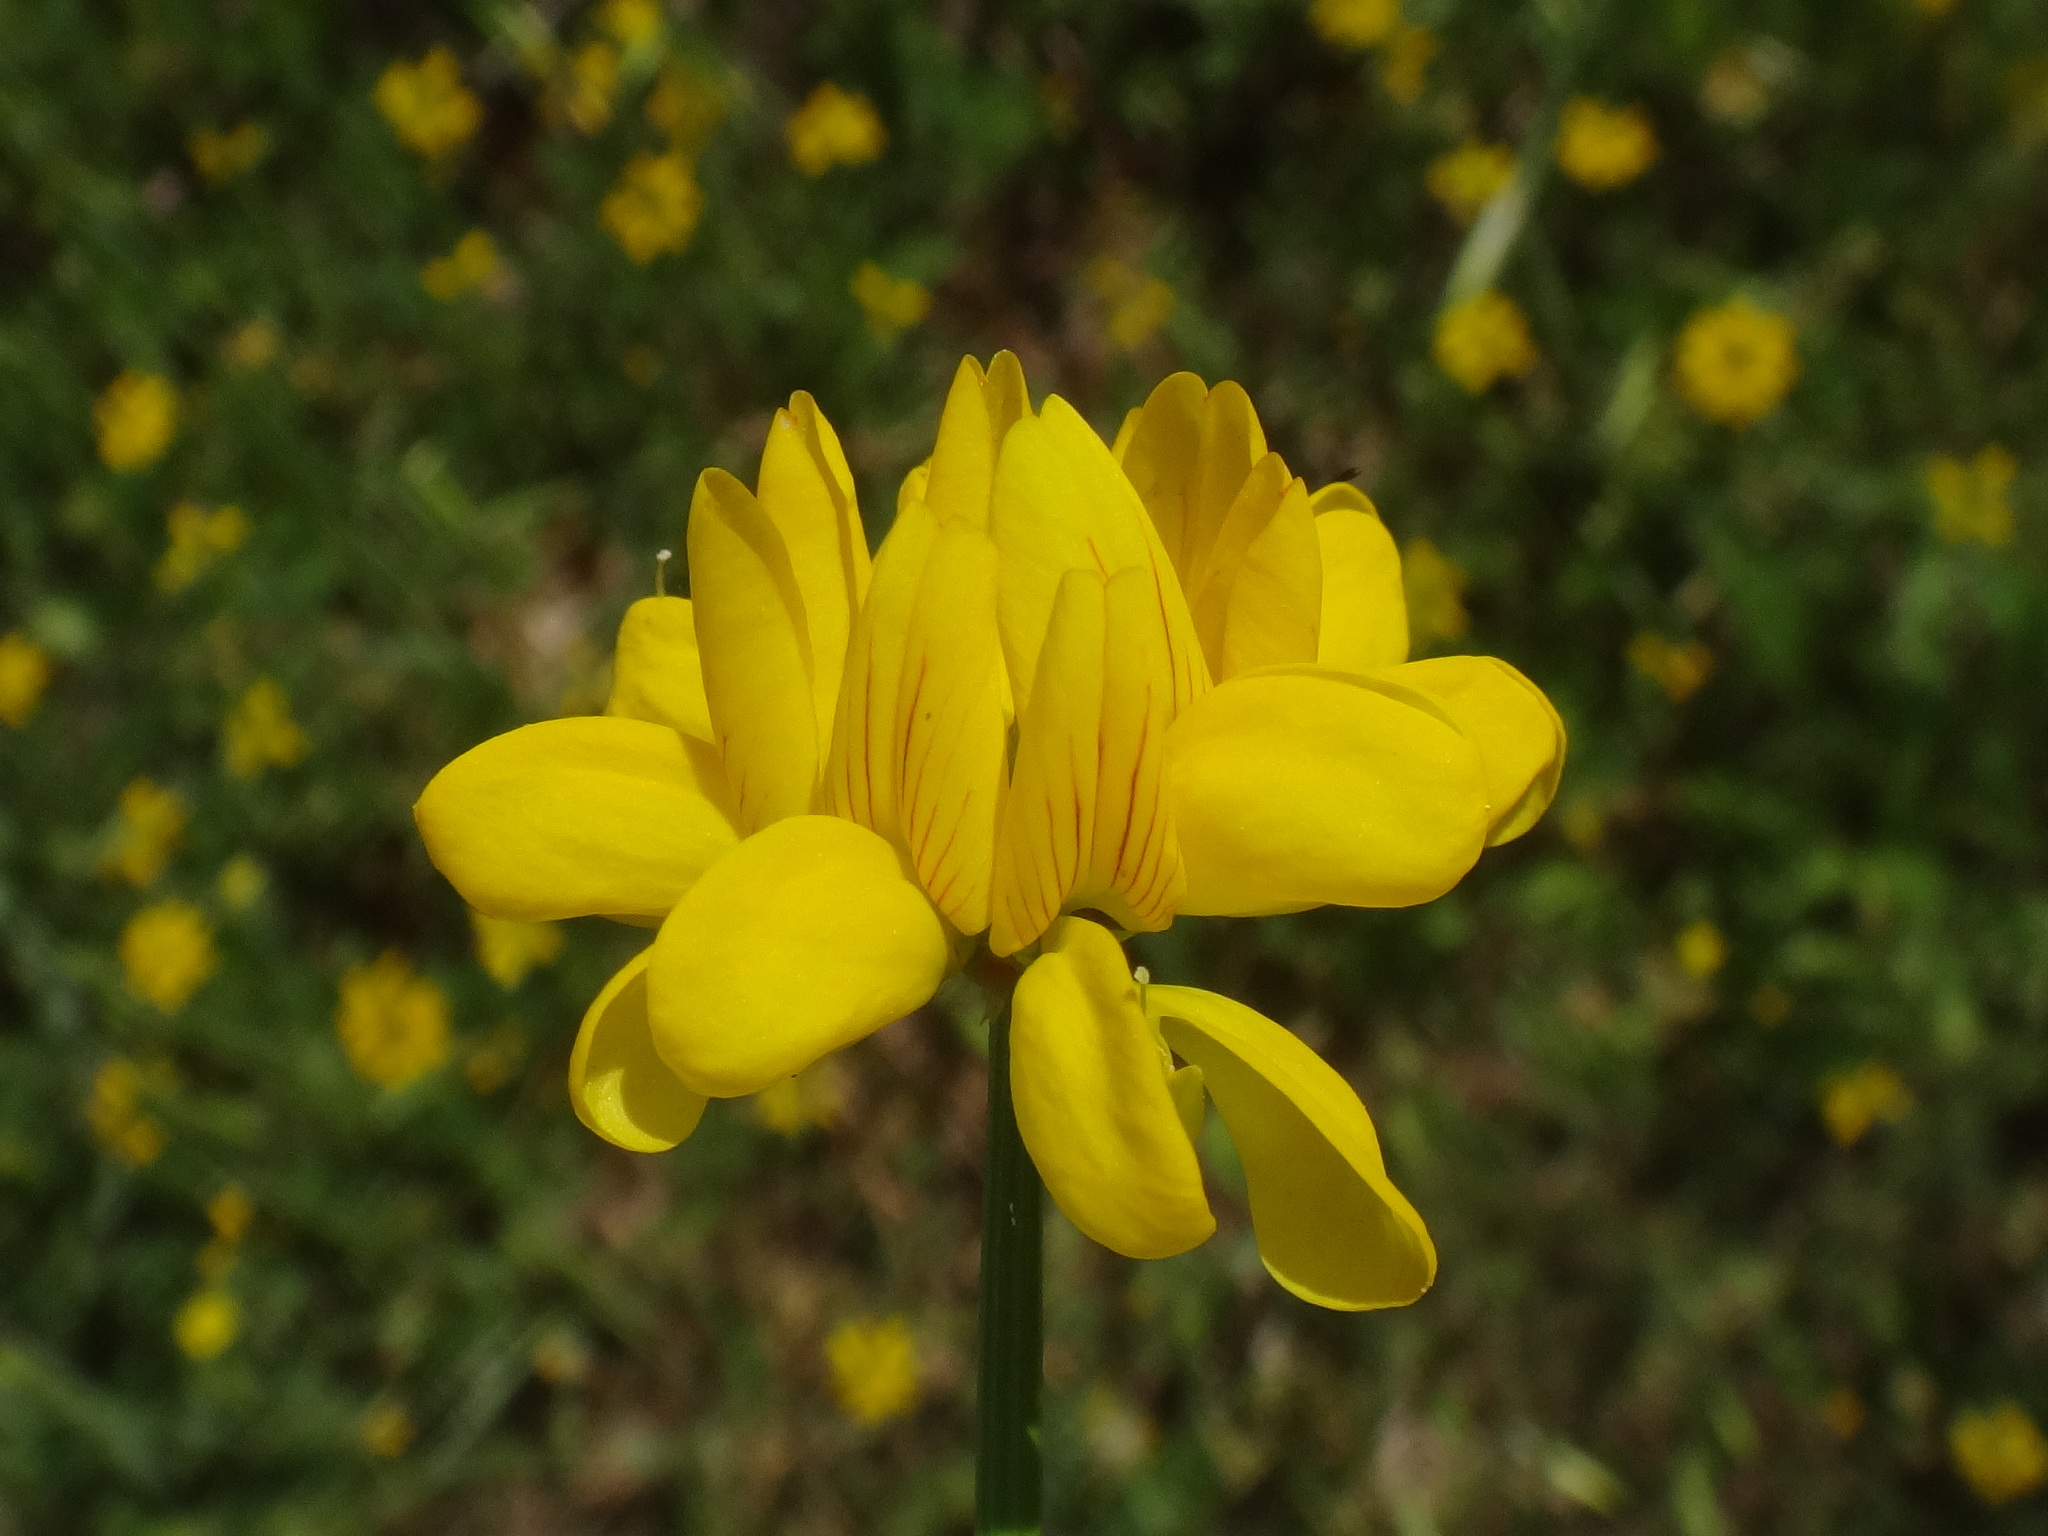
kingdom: Plantae
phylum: Tracheophyta
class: Magnoliopsida
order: Fabales
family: Fabaceae
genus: Coronilla
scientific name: Coronilla securidaca
